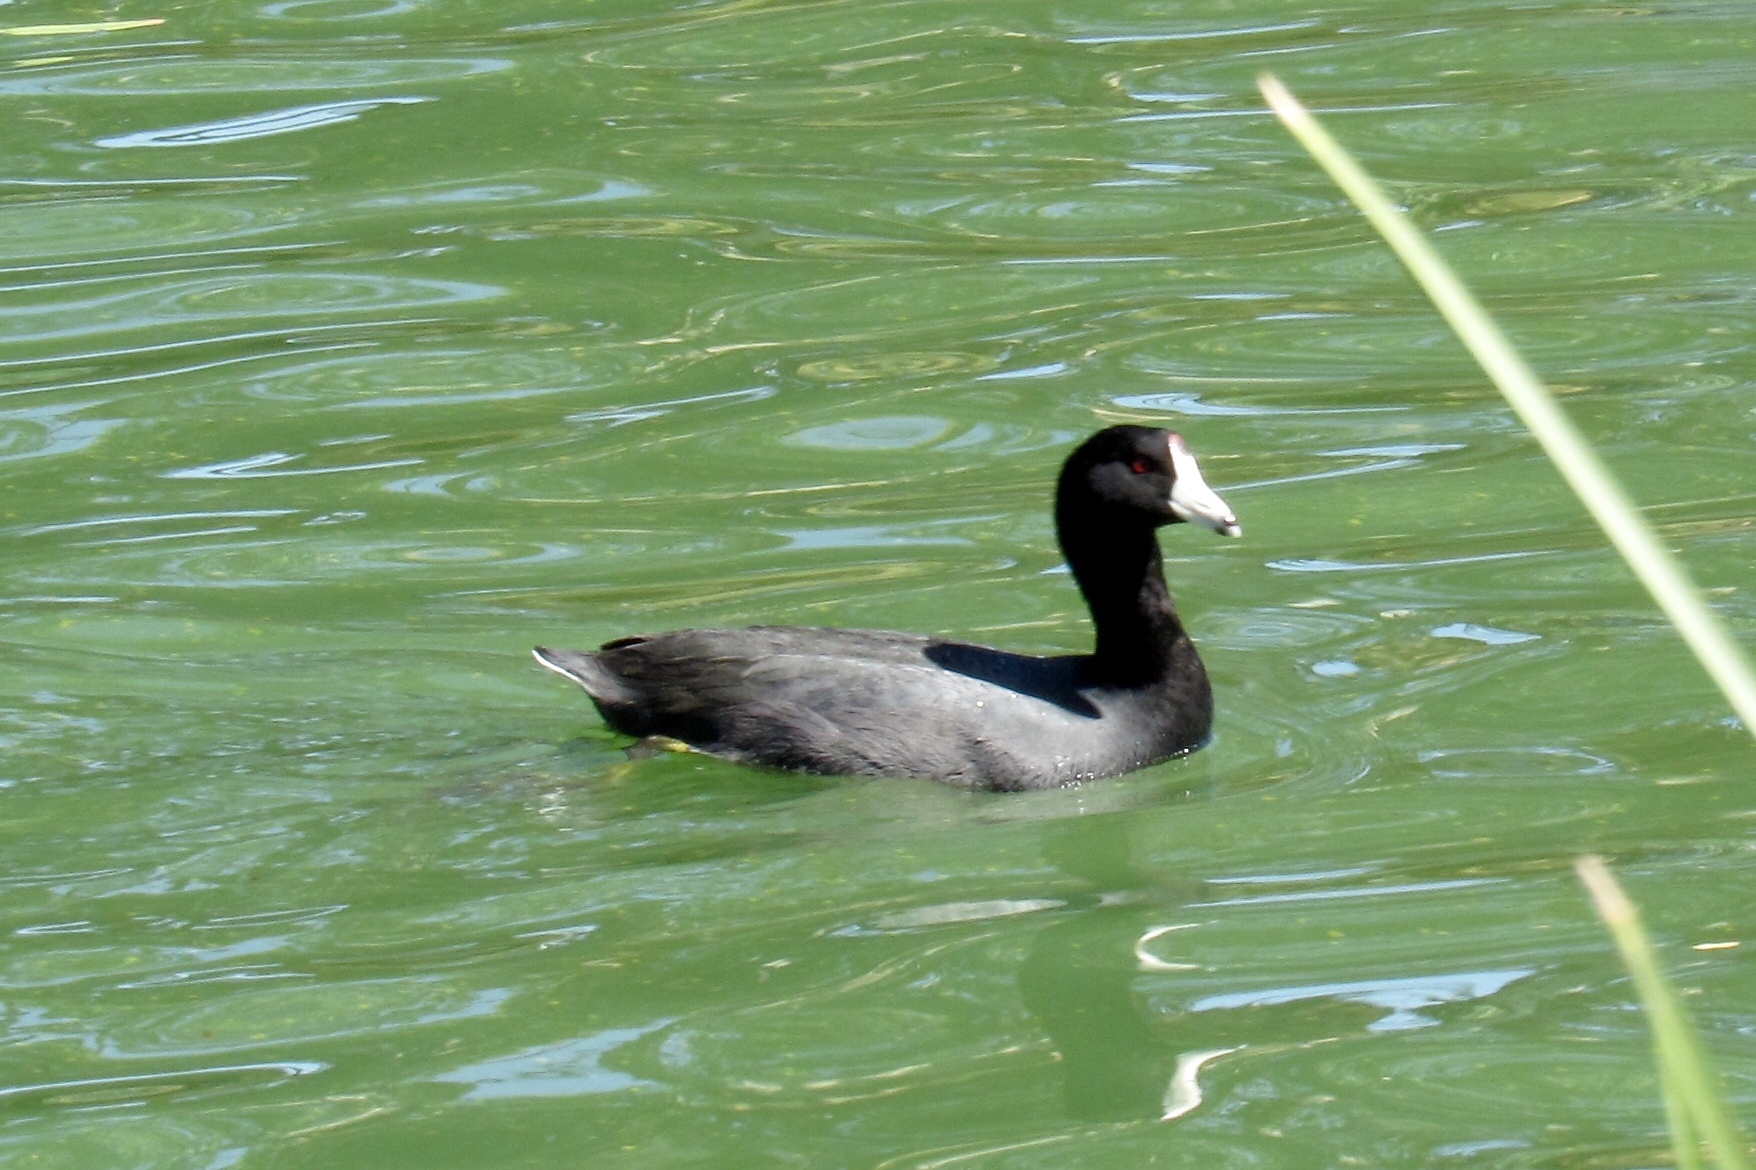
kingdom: Animalia
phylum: Chordata
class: Aves
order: Gruiformes
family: Rallidae
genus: Fulica
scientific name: Fulica americana
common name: American coot
